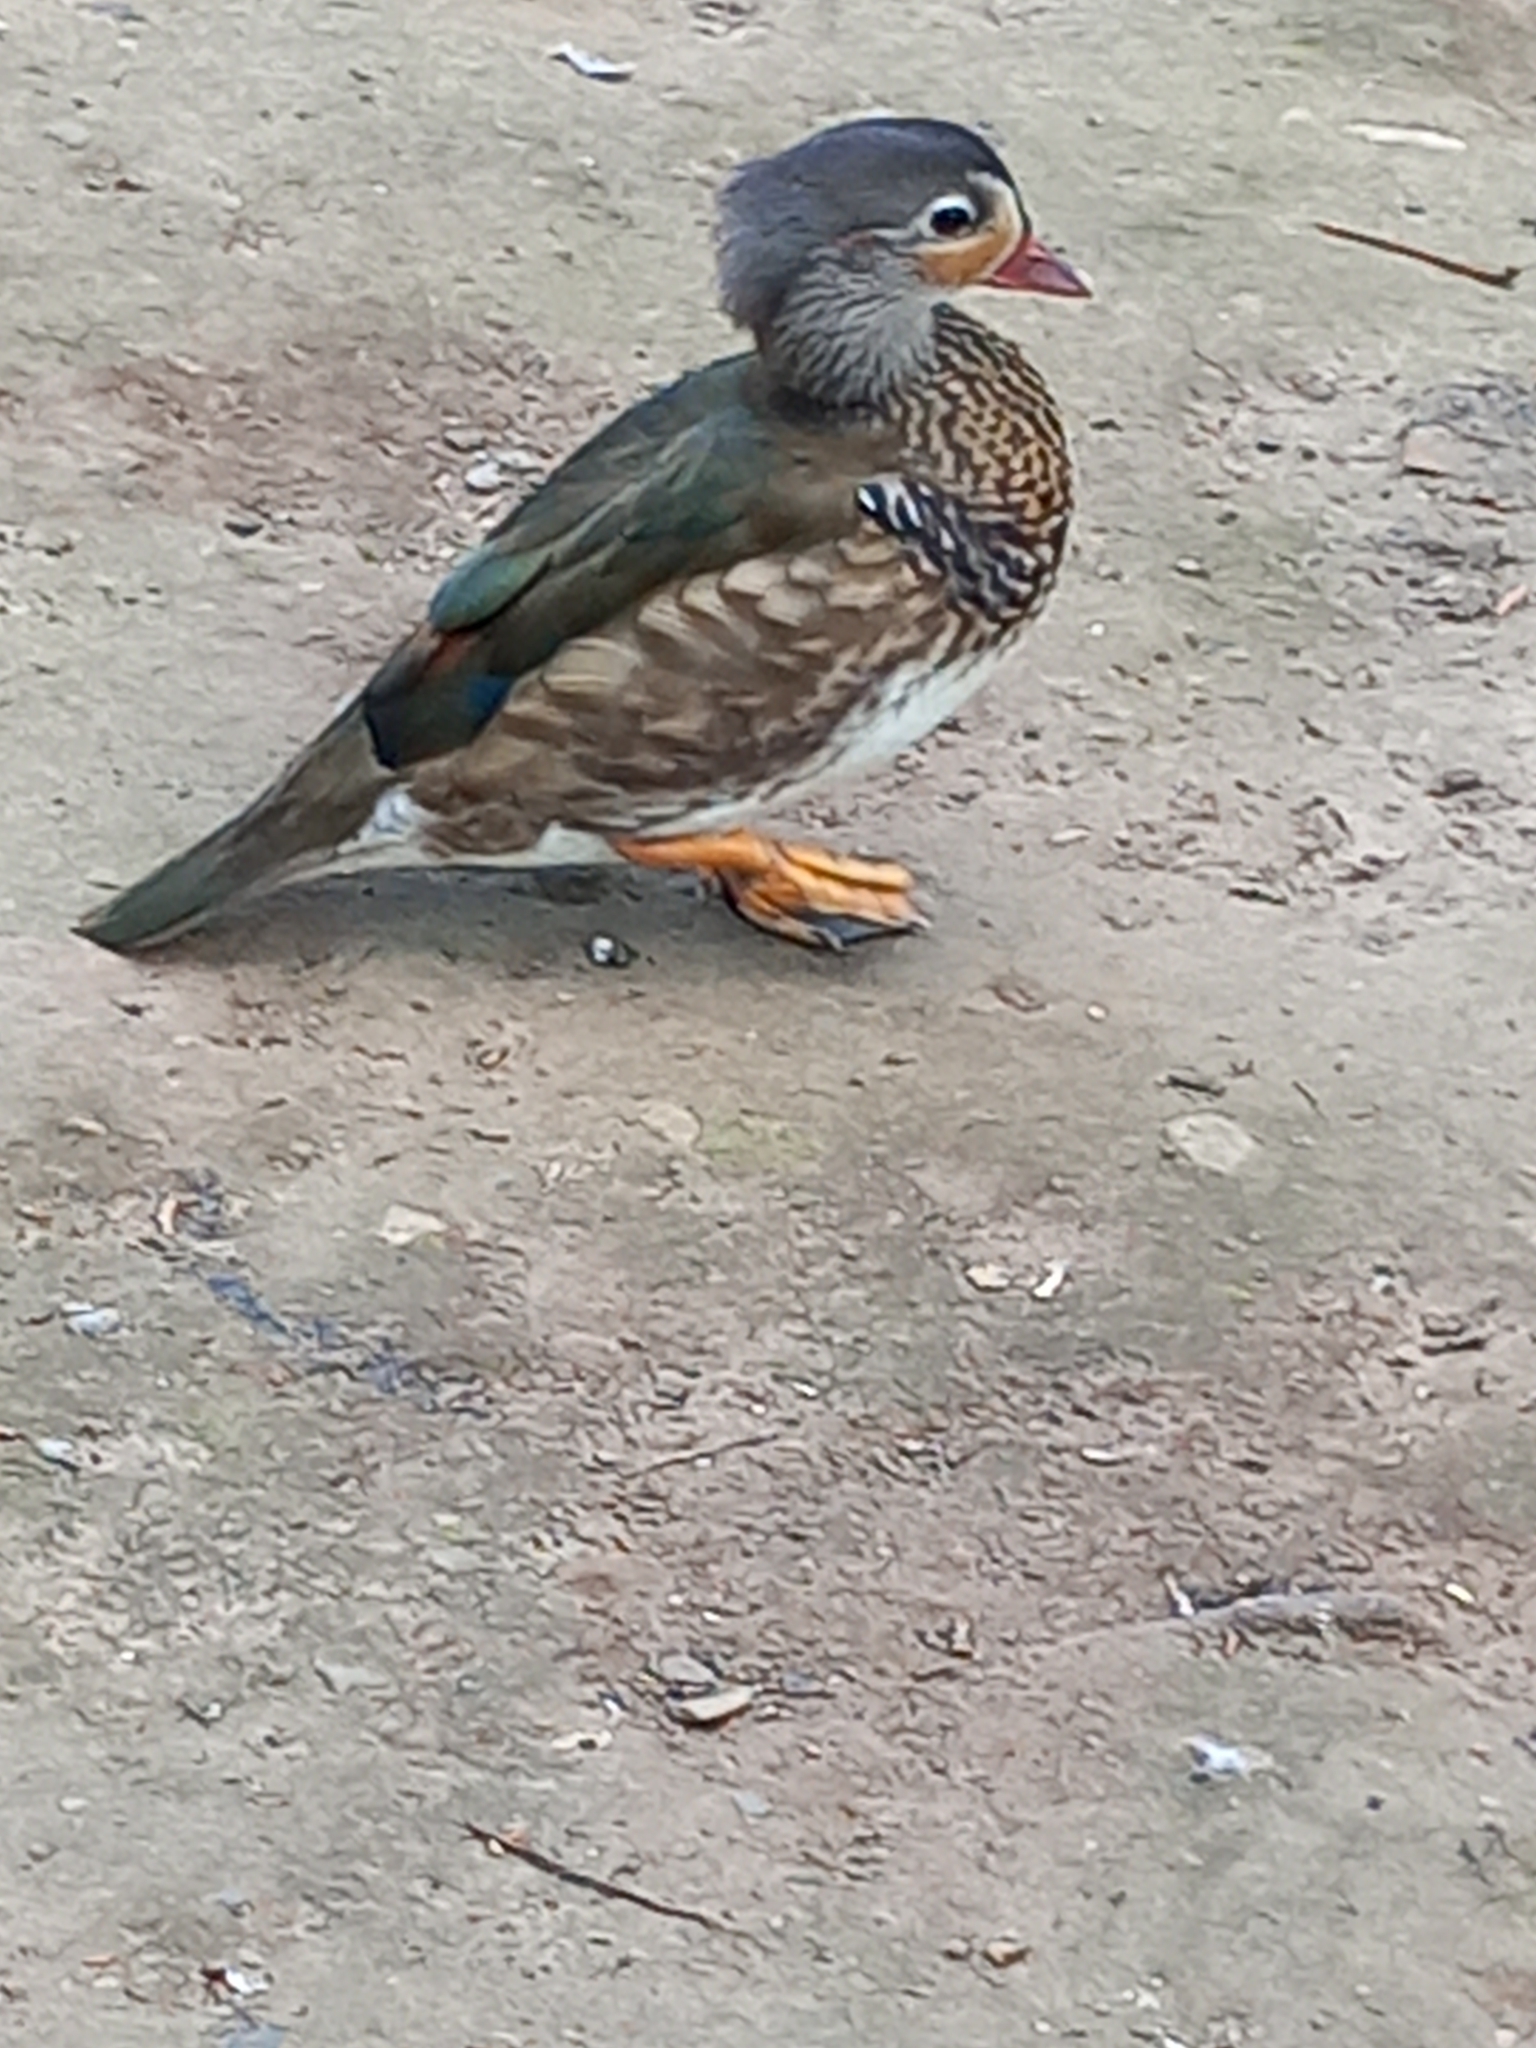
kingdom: Animalia
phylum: Chordata
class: Aves
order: Anseriformes
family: Anatidae
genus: Aix
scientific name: Aix galericulata
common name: Mandarin duck
